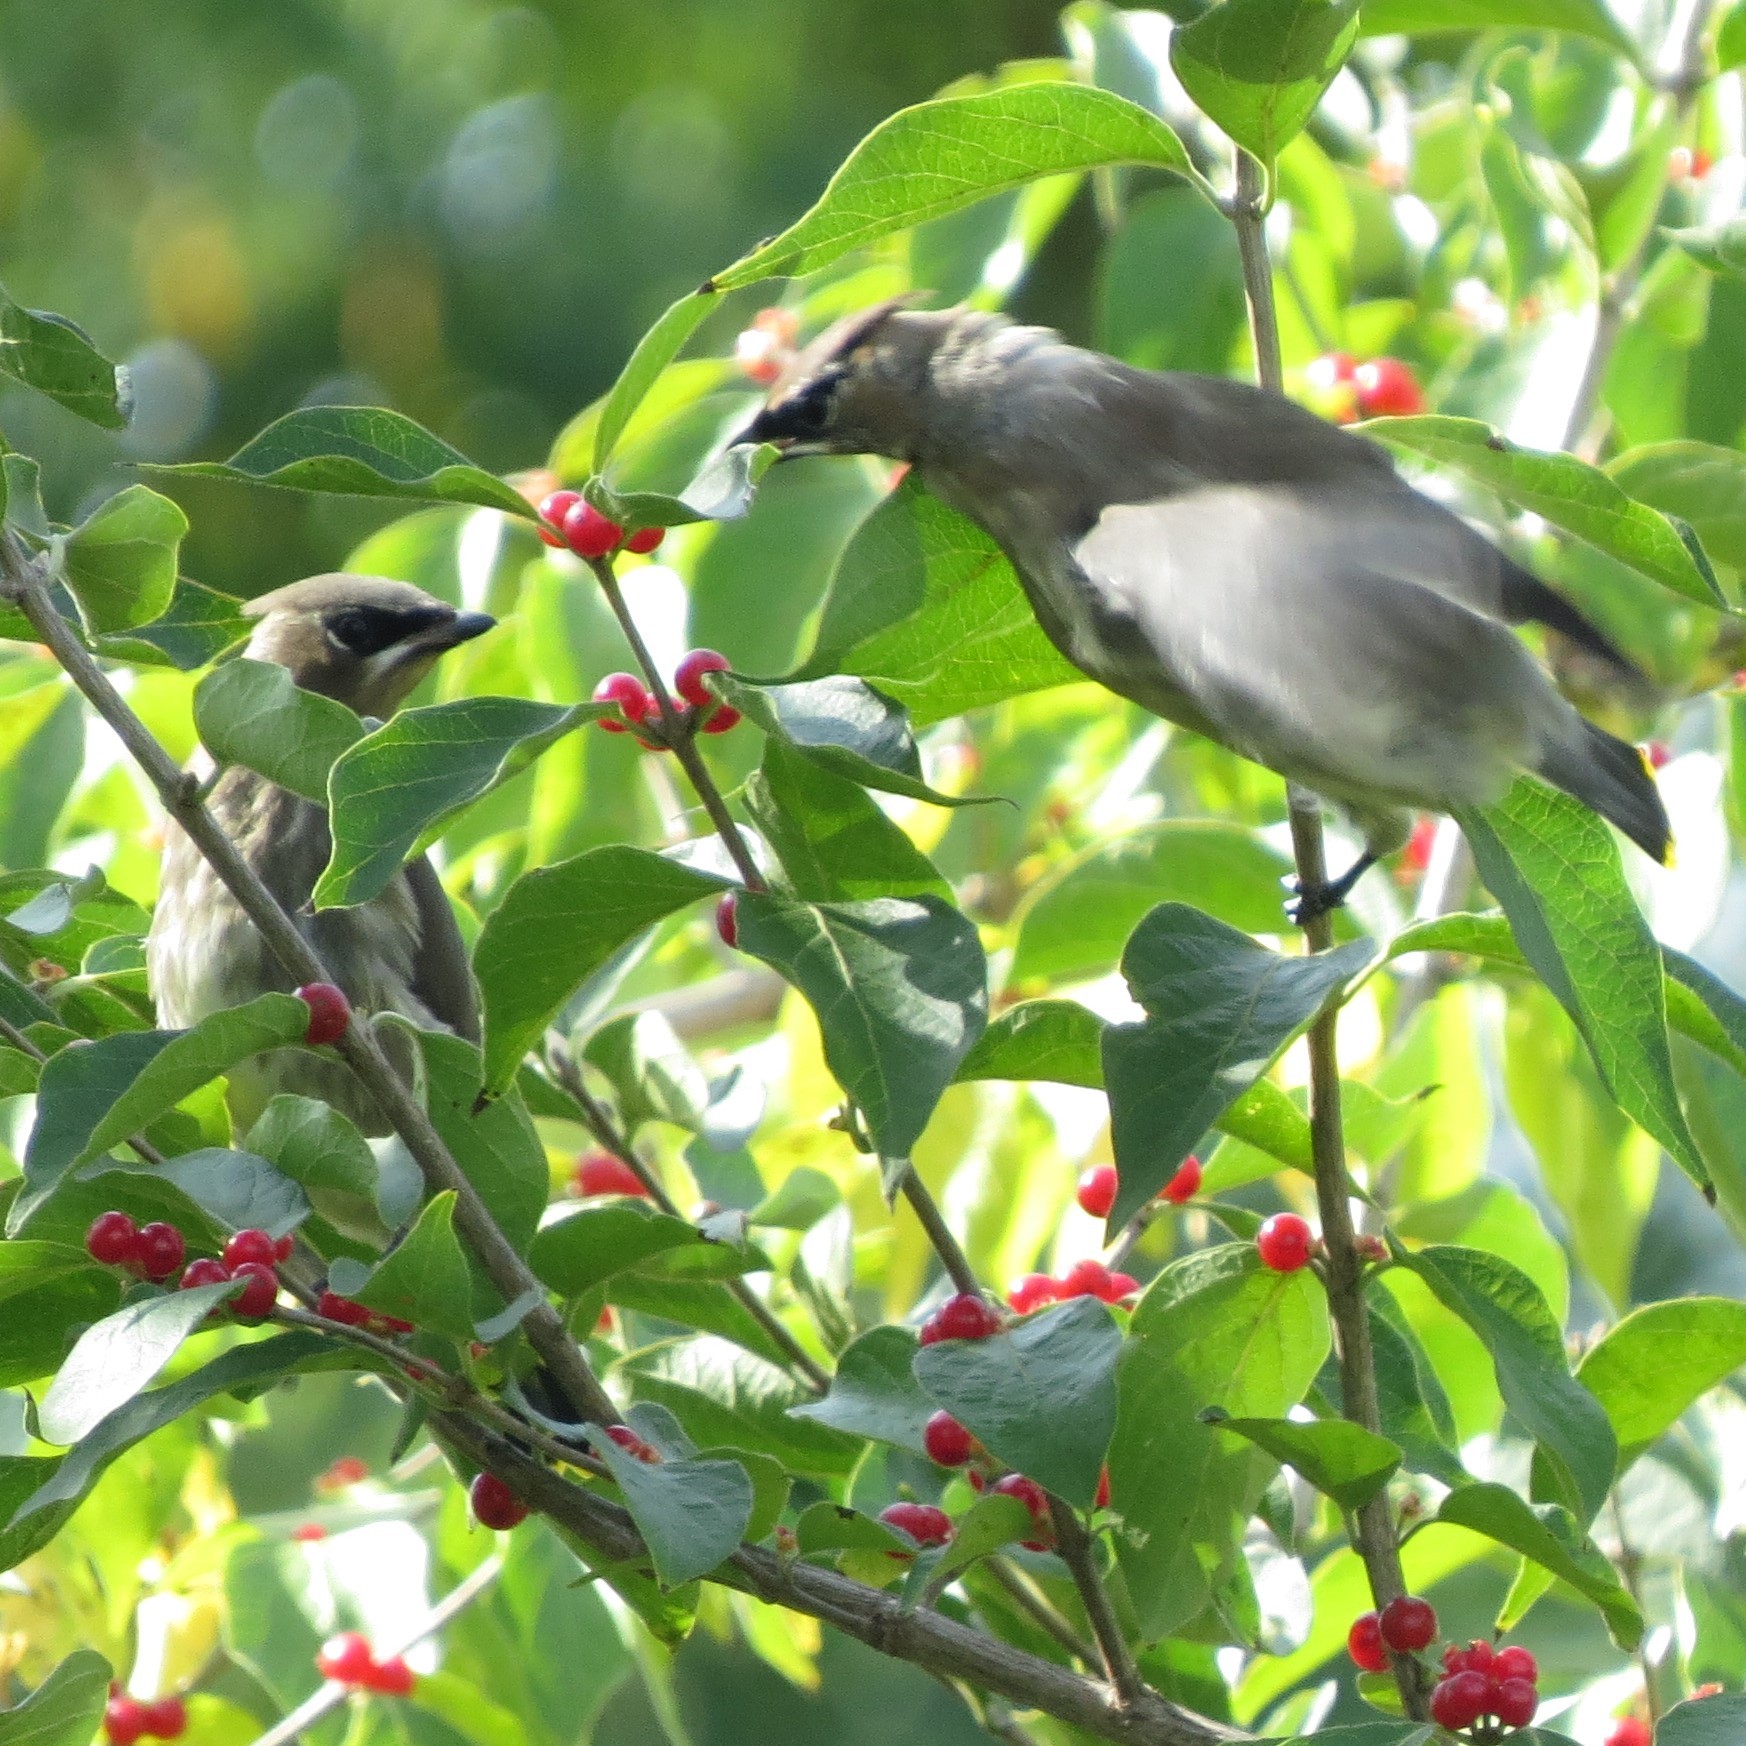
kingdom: Animalia
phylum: Chordata
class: Aves
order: Passeriformes
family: Bombycillidae
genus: Bombycilla
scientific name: Bombycilla cedrorum
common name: Cedar waxwing
